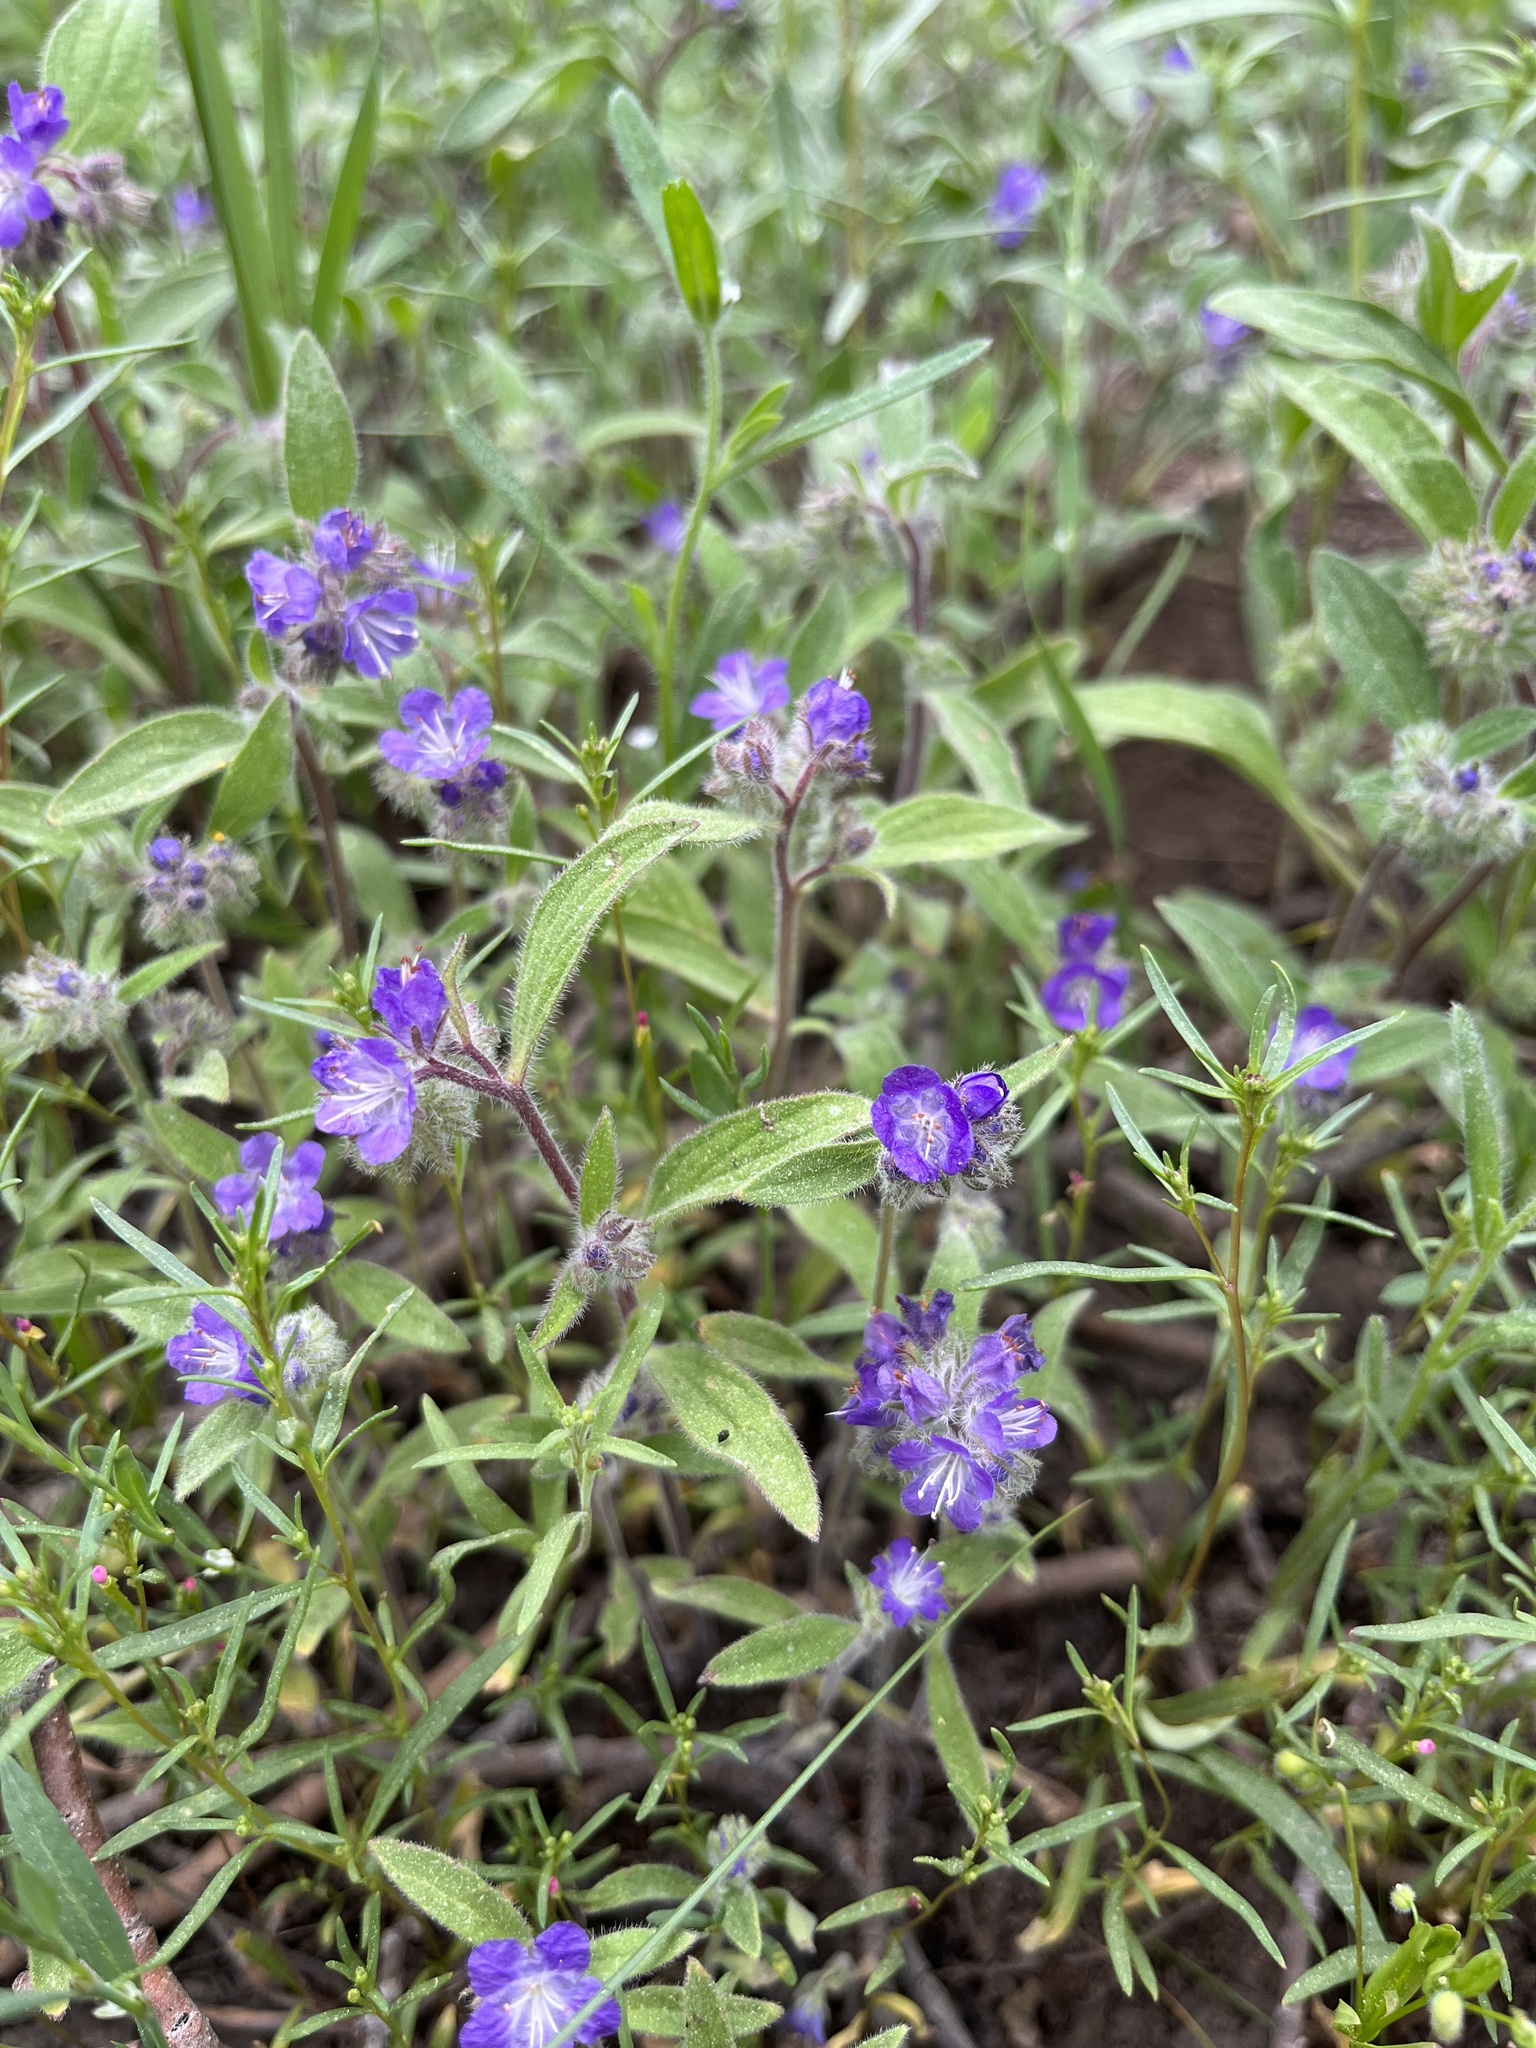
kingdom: Plantae
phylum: Tracheophyta
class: Magnoliopsida
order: Boraginales
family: Hydrophyllaceae
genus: Phacelia
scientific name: Phacelia humilis
